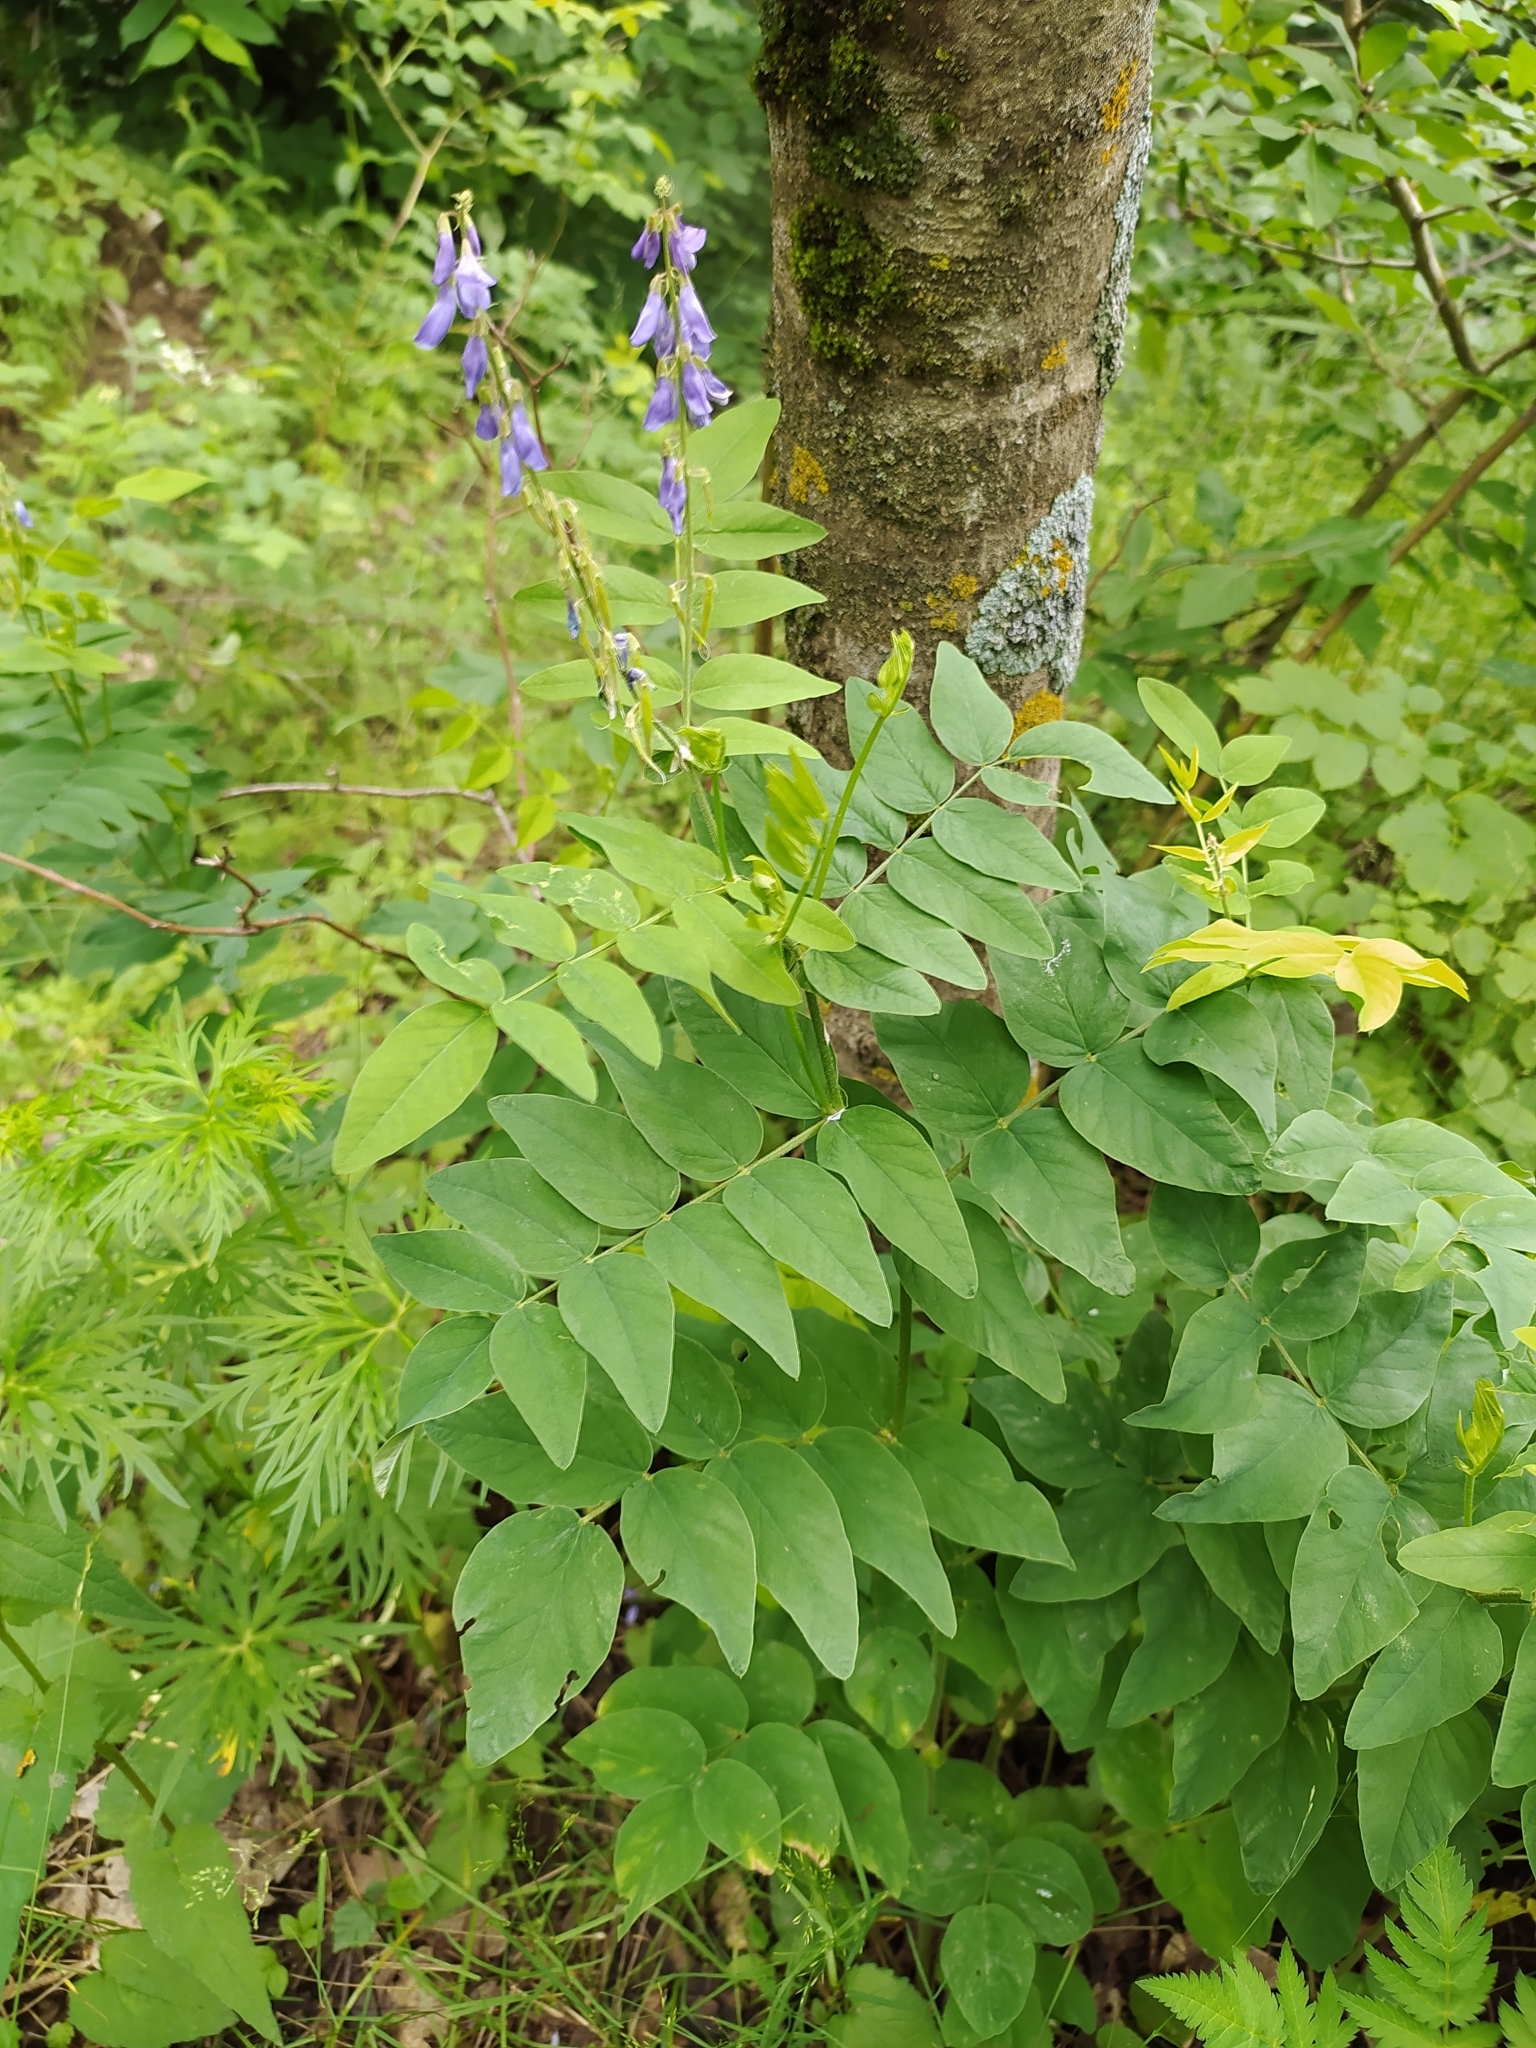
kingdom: Plantae
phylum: Tracheophyta
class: Magnoliopsida
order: Fabales
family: Fabaceae
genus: Galega
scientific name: Galega orientalis
